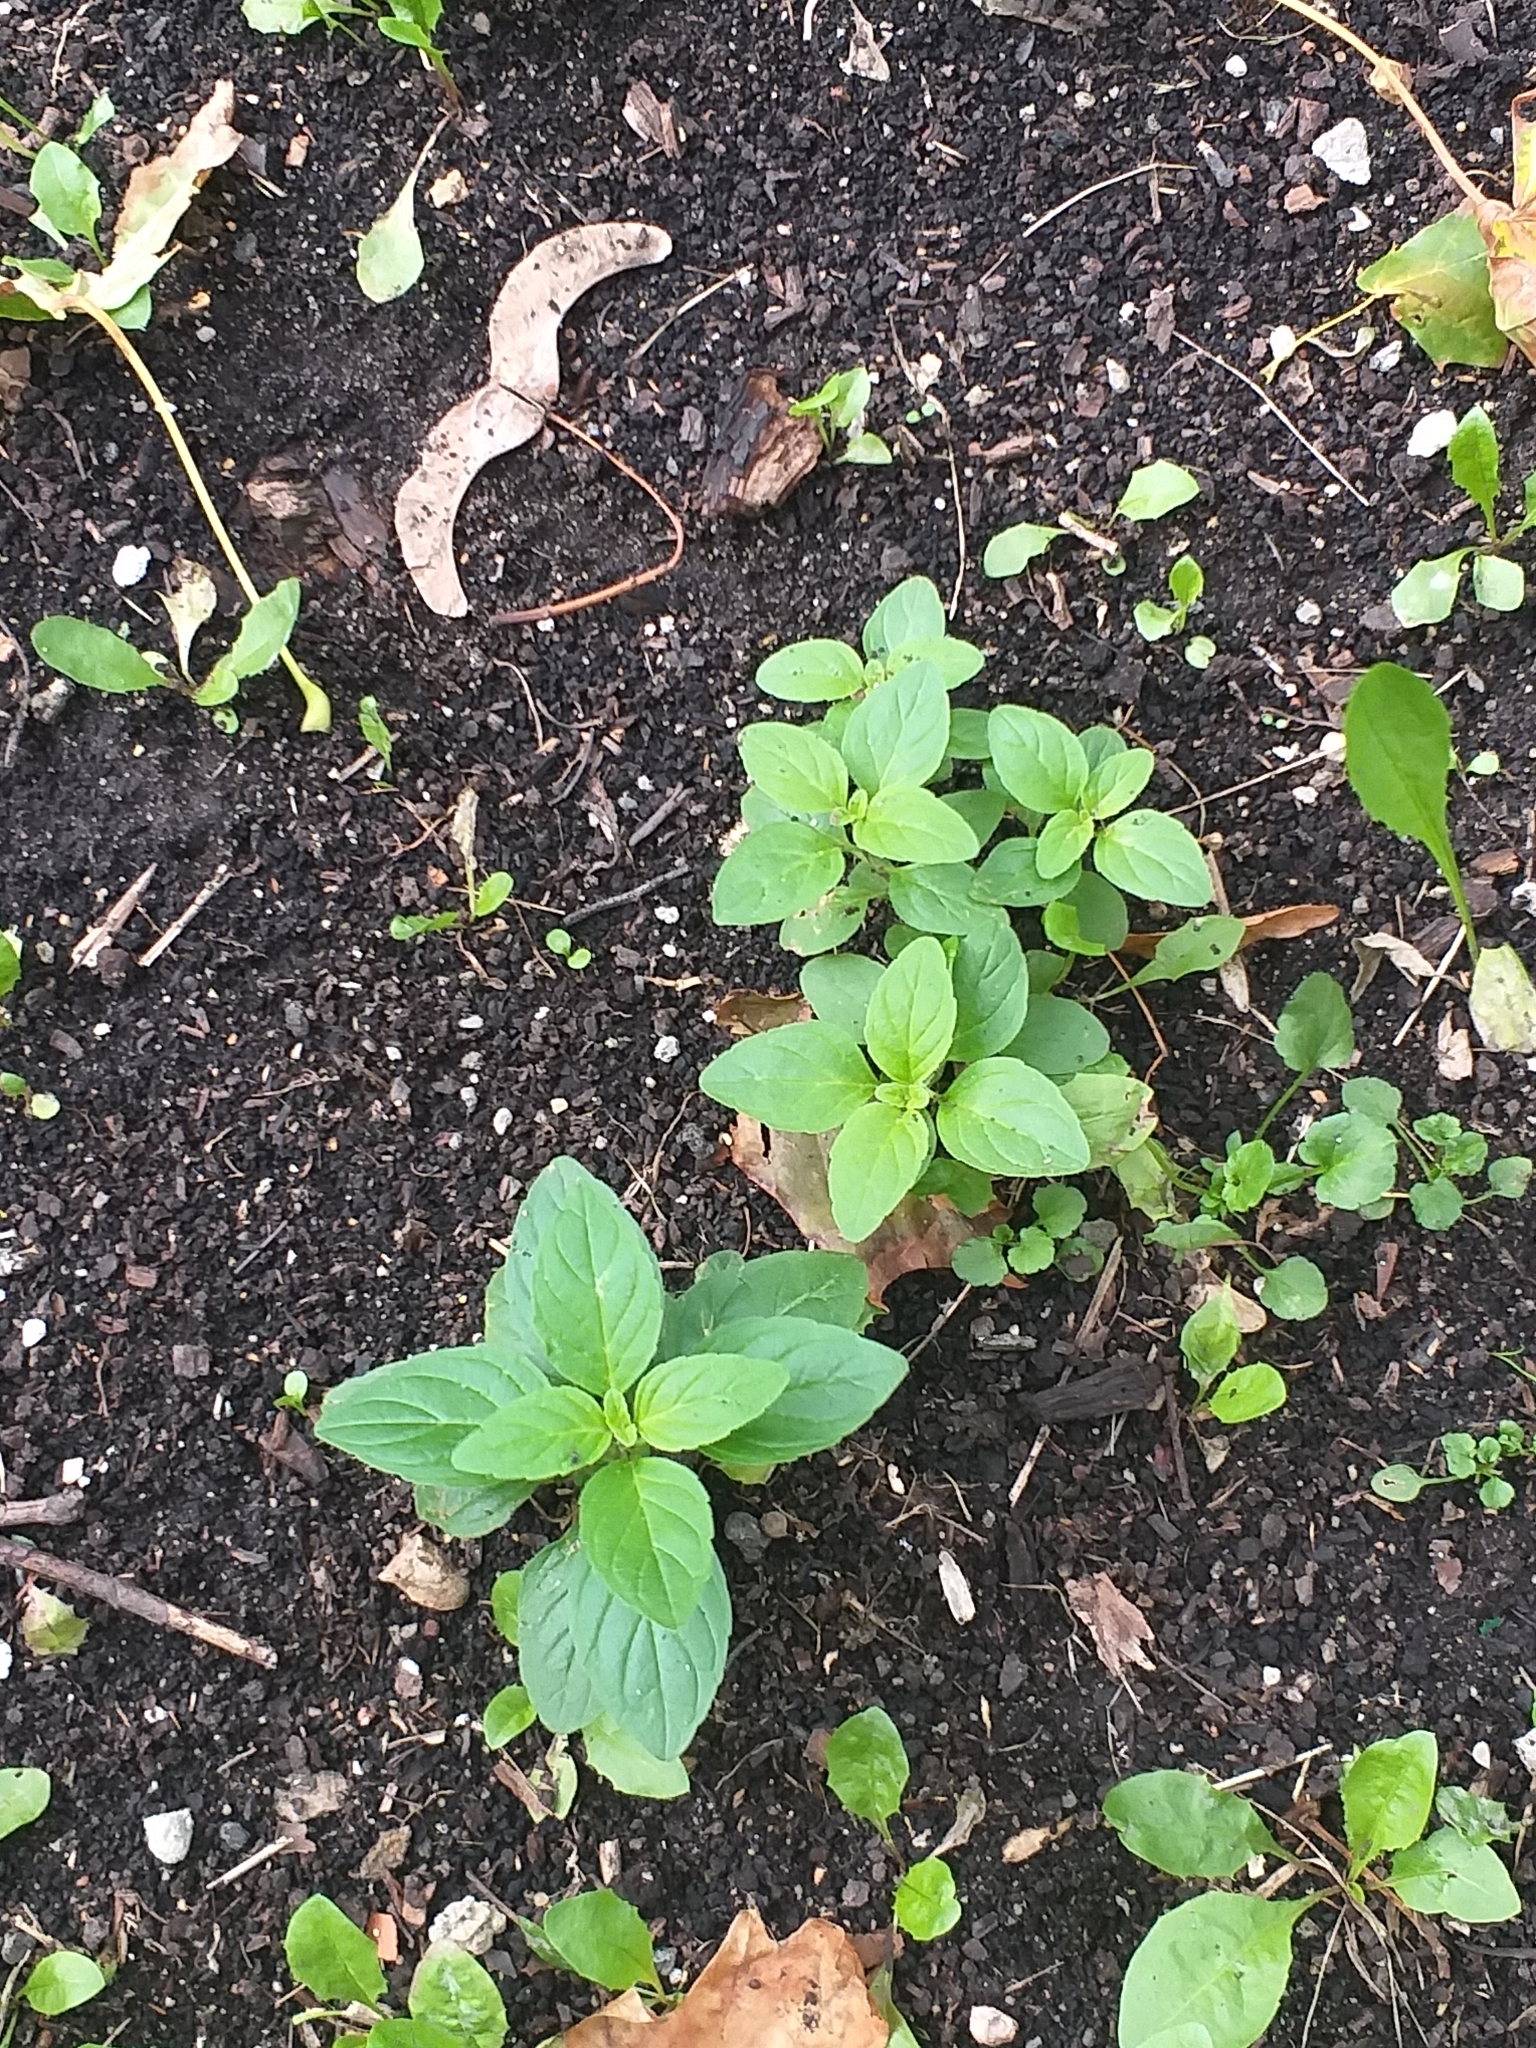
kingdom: Plantae
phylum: Tracheophyta
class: Magnoliopsida
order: Lamiales
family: Lamiaceae
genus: Mentha
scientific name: Mentha arvensis
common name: Corn mint
